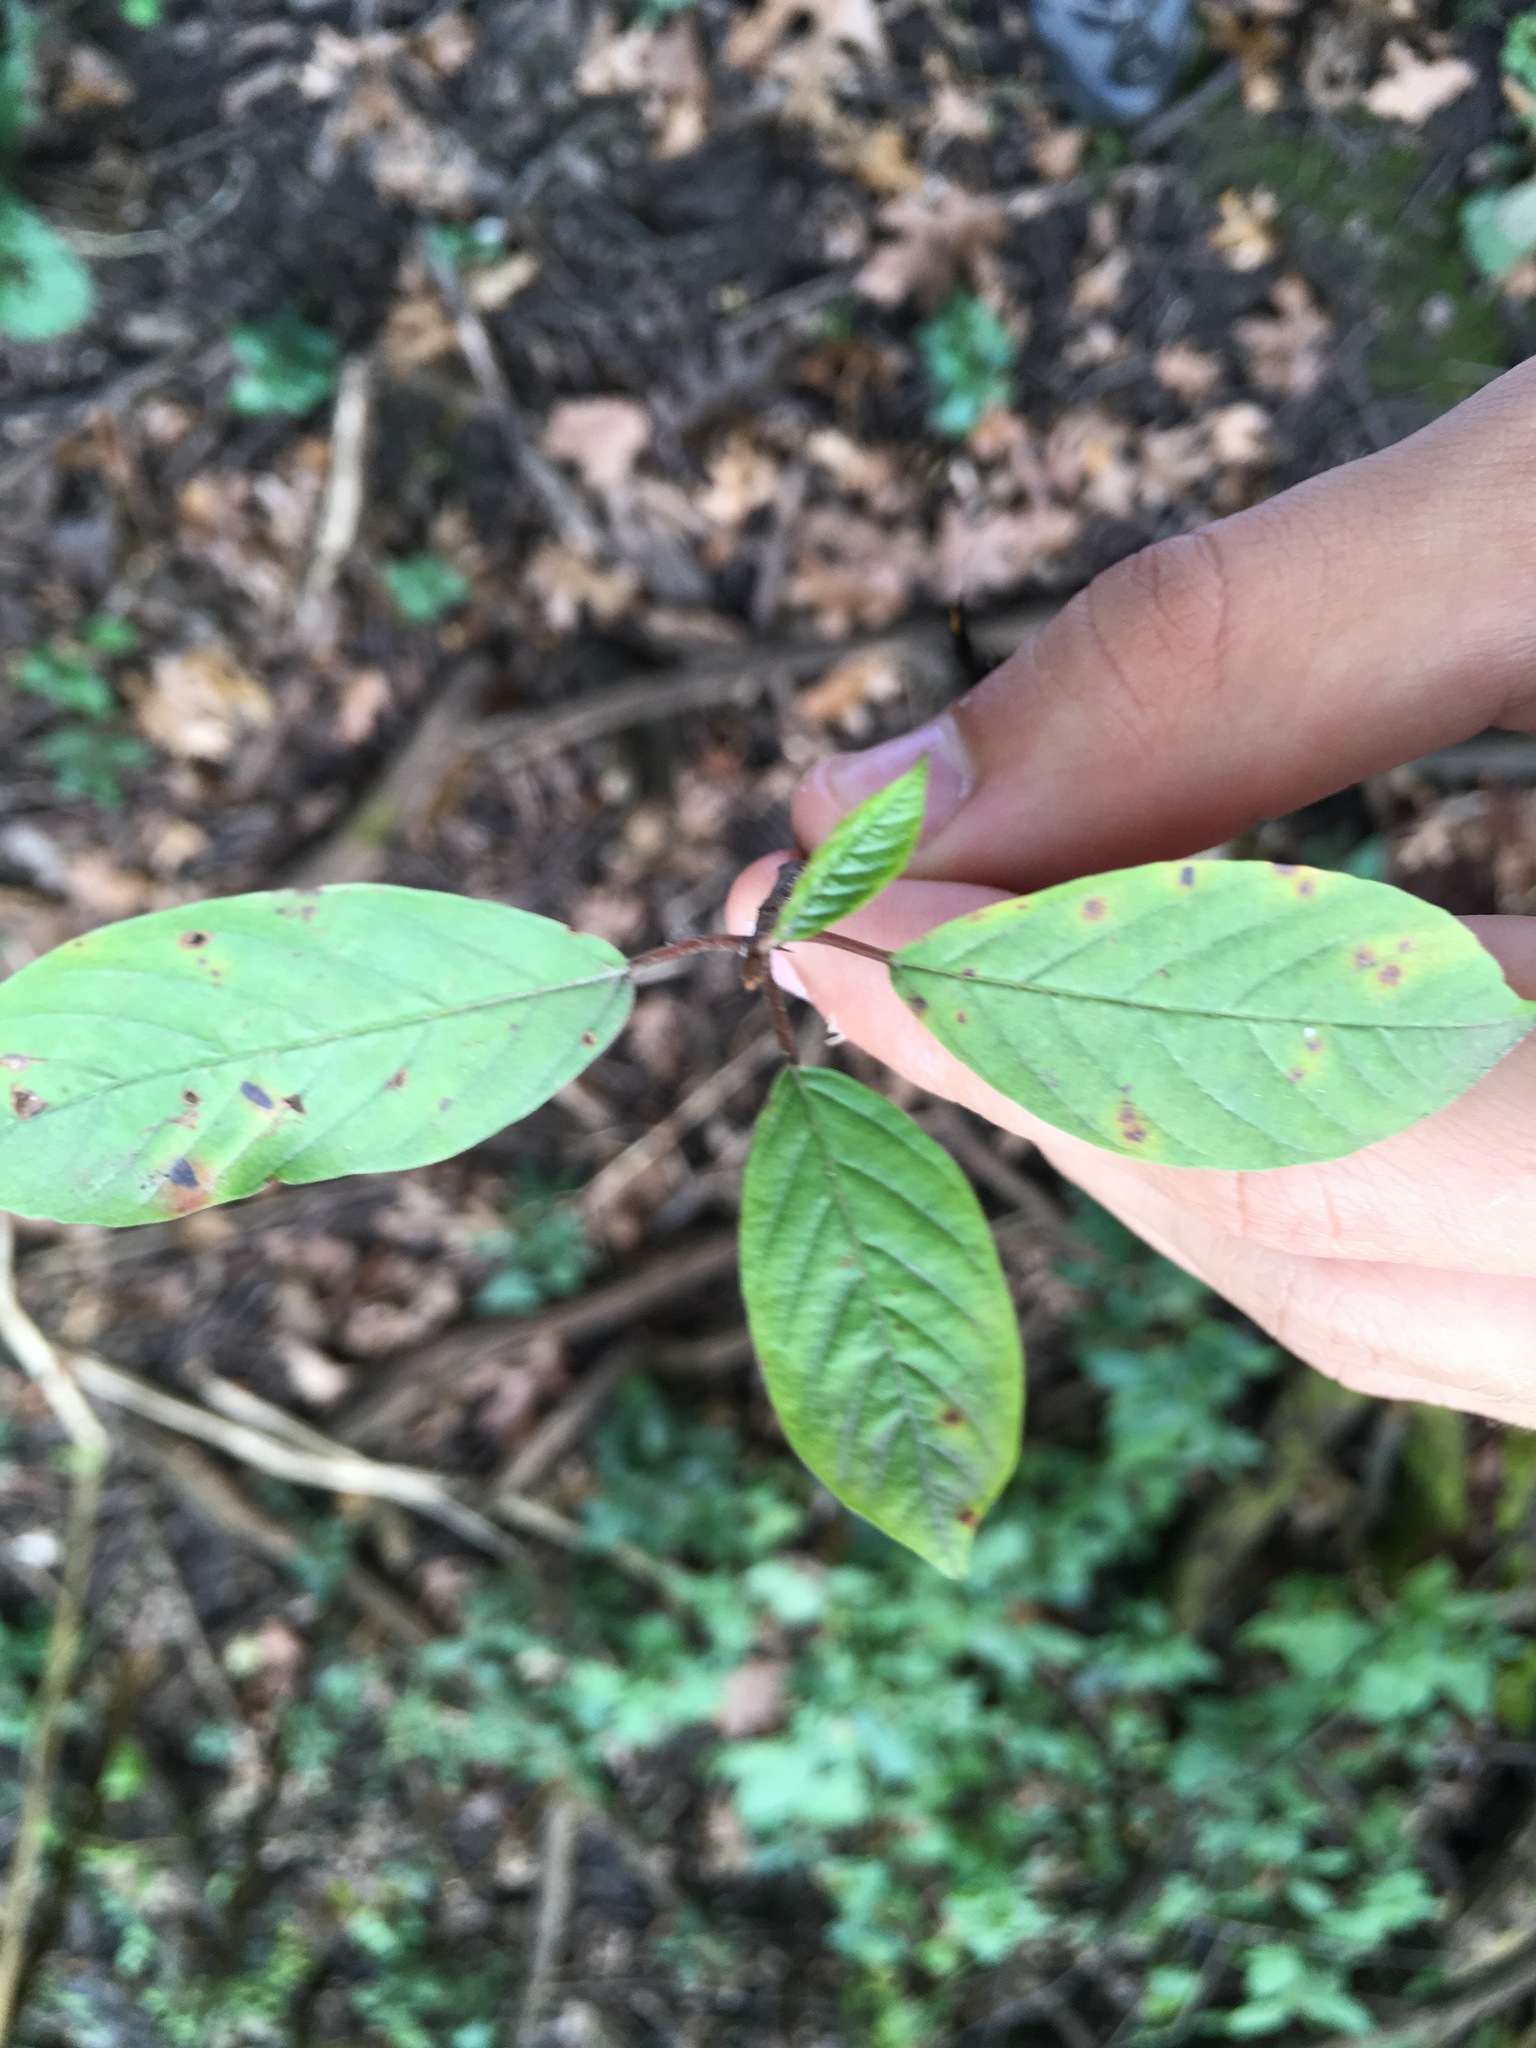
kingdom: Plantae
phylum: Tracheophyta
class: Magnoliopsida
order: Rosales
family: Rhamnaceae
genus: Frangula
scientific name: Frangula alnus
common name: Alder buckthorn
